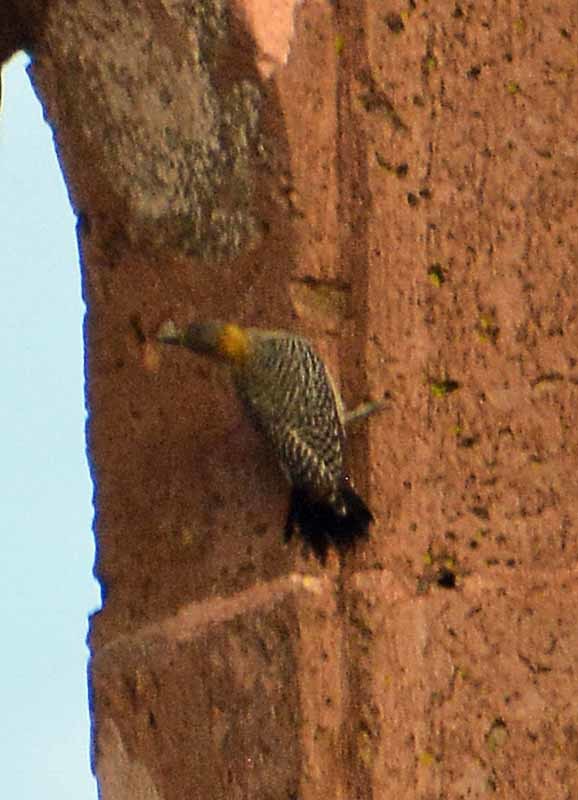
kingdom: Animalia
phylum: Chordata
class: Aves
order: Piciformes
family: Picidae
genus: Melanerpes
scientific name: Melanerpes aurifrons
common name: Golden-fronted woodpecker
